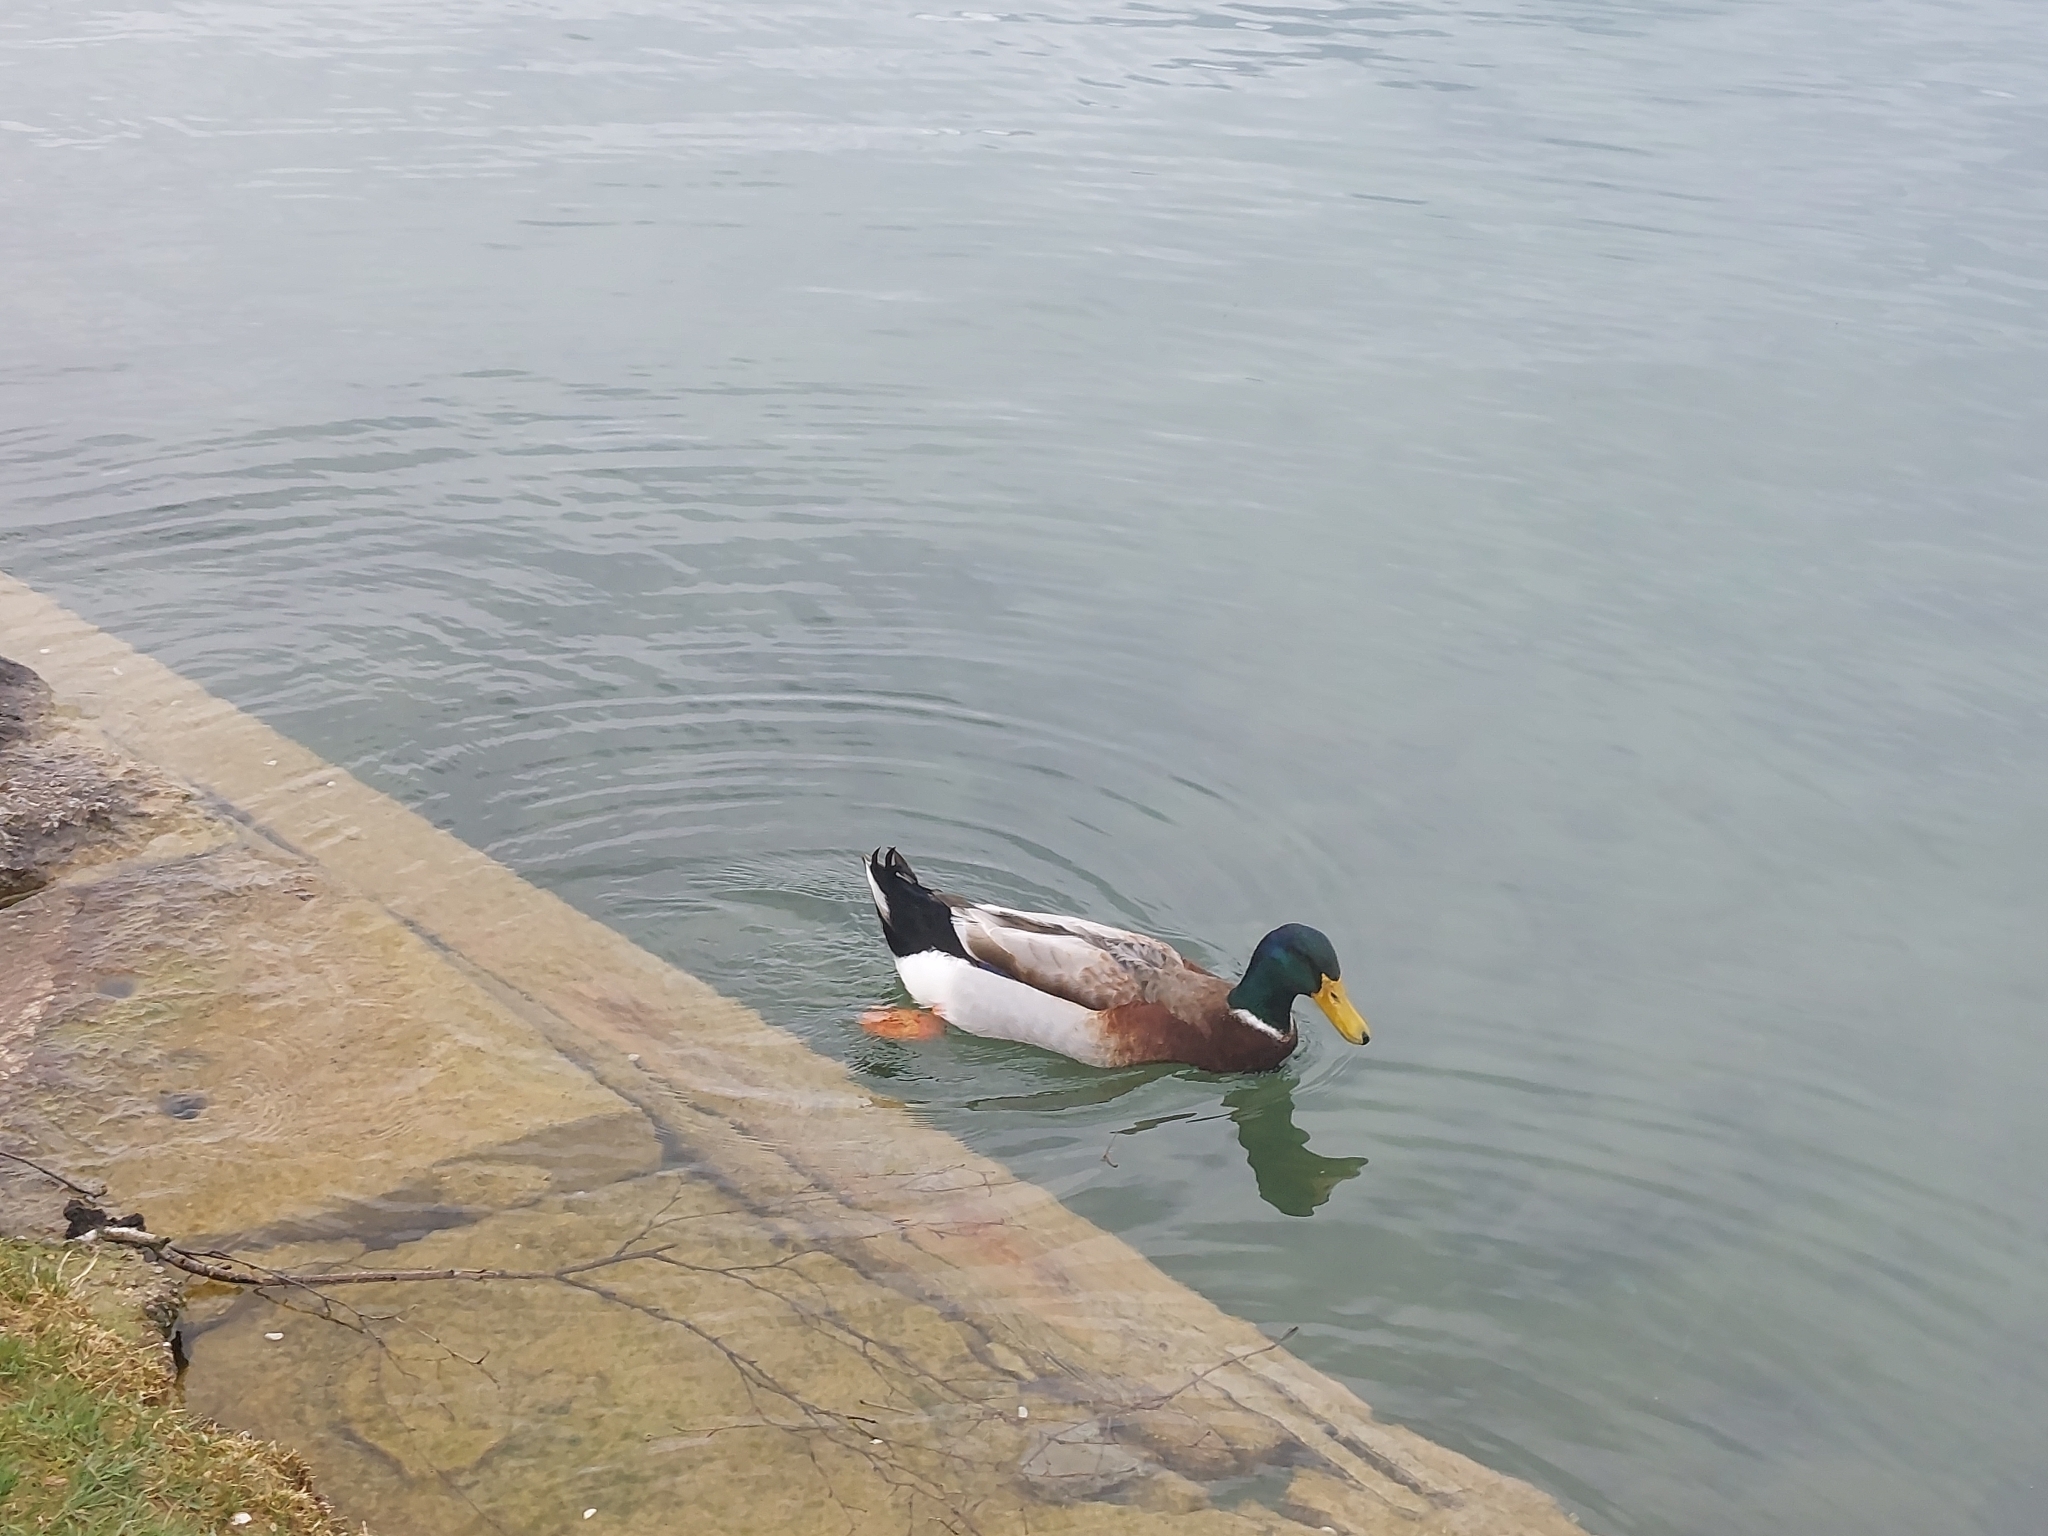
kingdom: Animalia
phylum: Chordata
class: Aves
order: Anseriformes
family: Anatidae
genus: Anas
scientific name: Anas platyrhynchos
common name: Mallard
